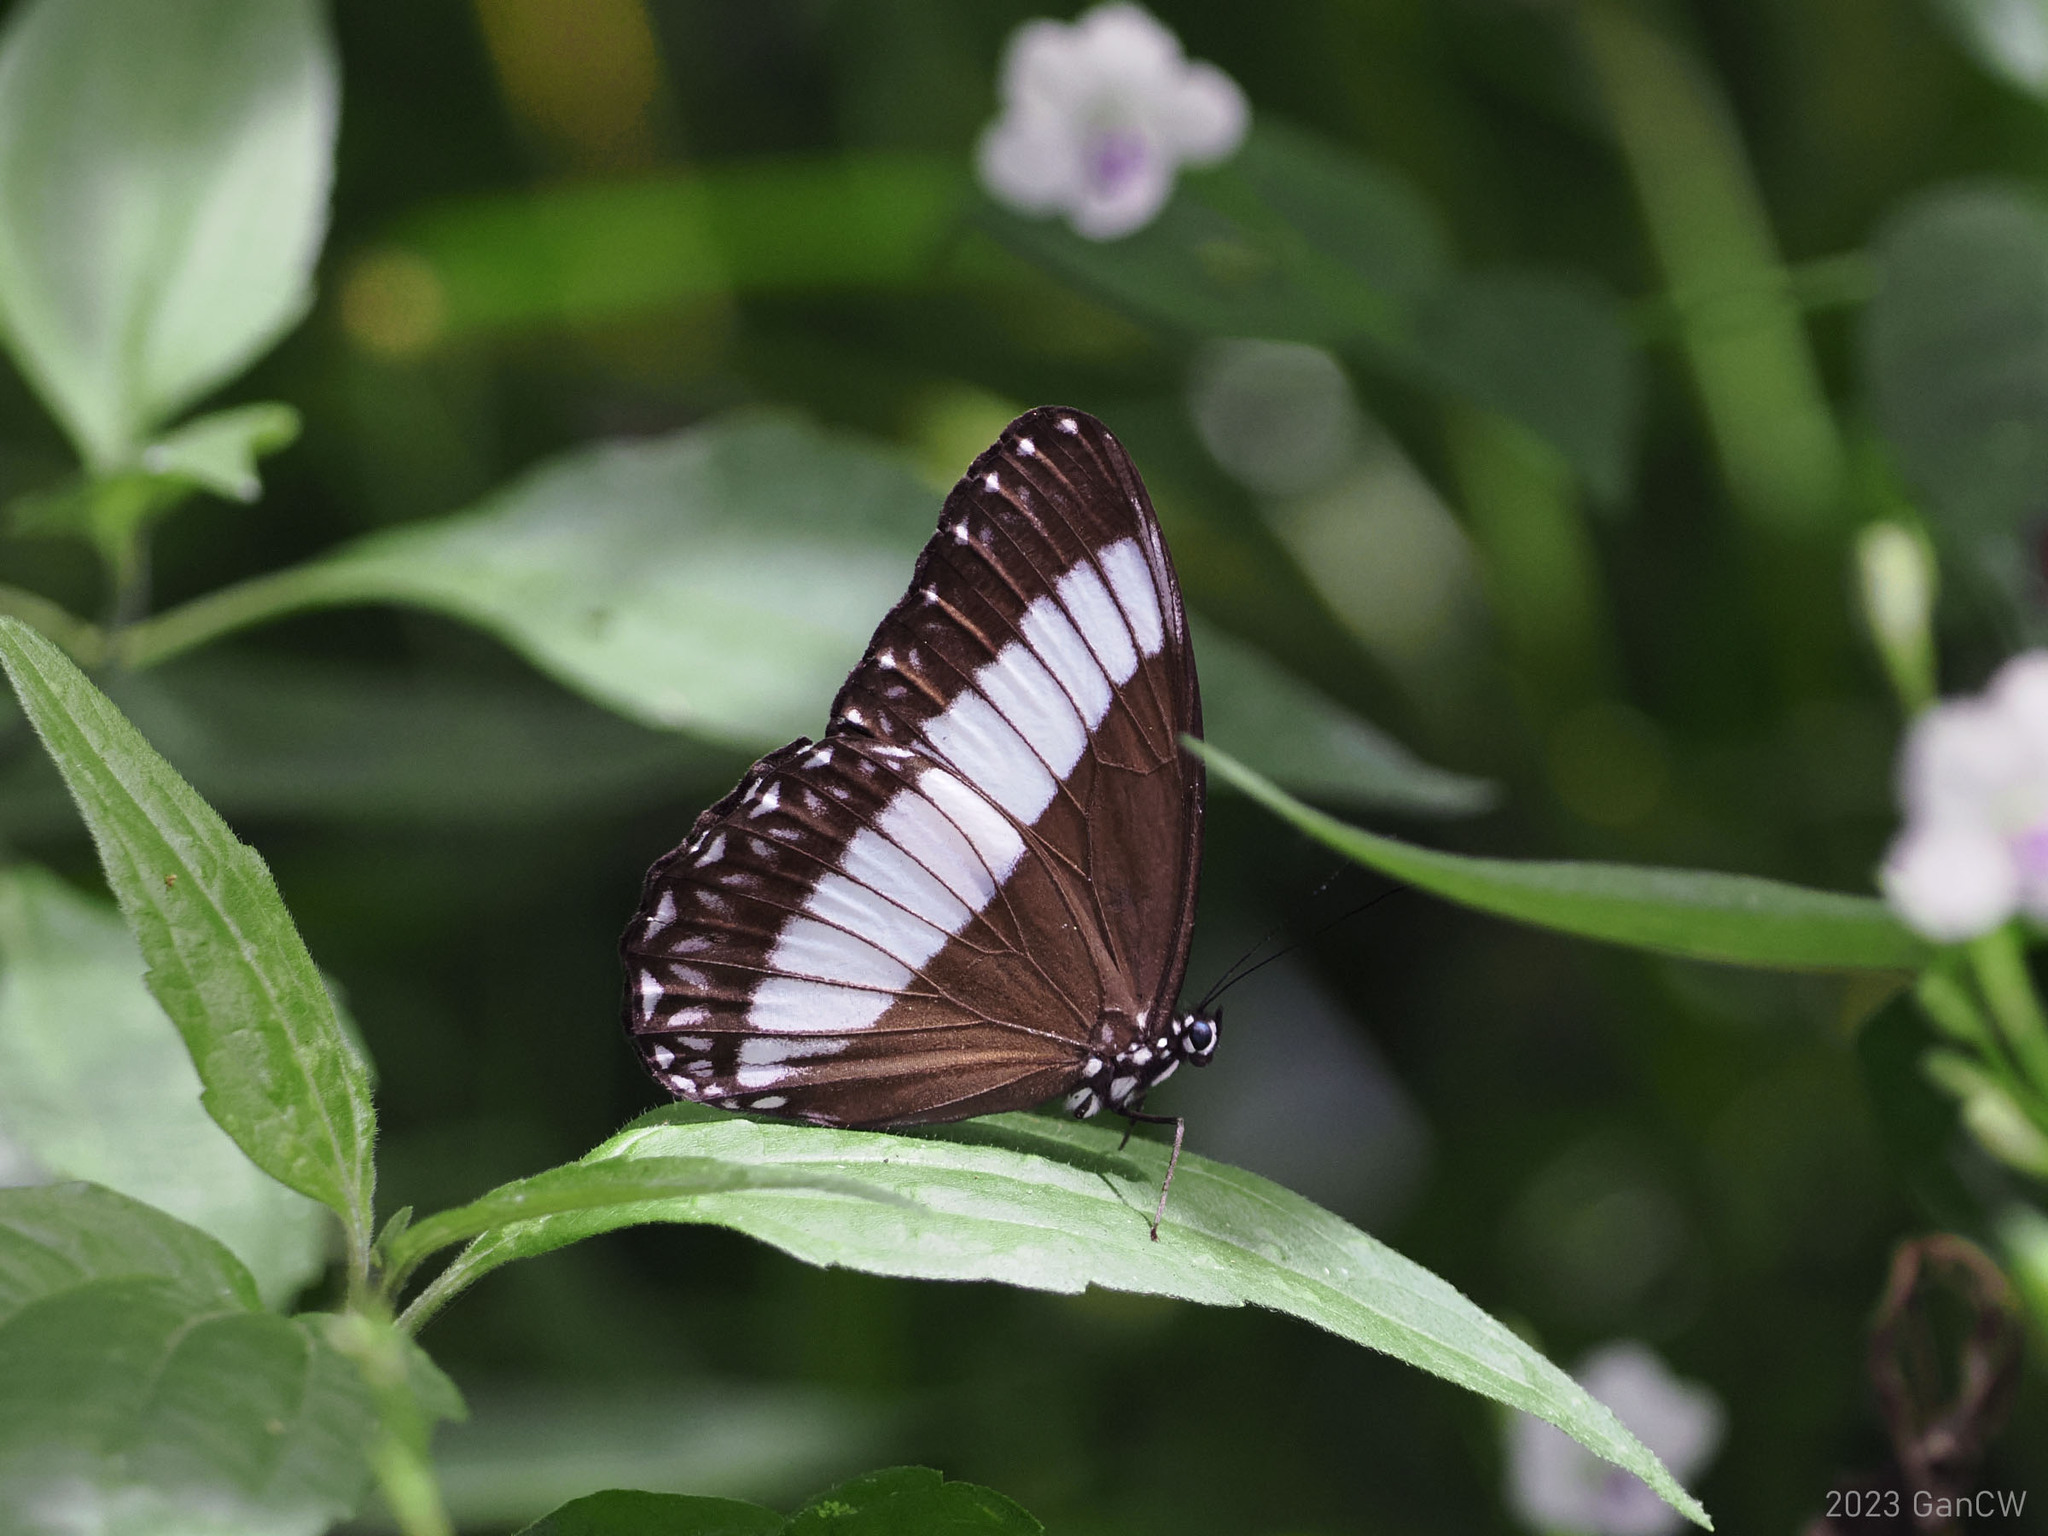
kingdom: Animalia
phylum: Arthropoda
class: Insecta
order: Lepidoptera
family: Nymphalidae
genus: Zethera
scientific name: Zethera pimplea
